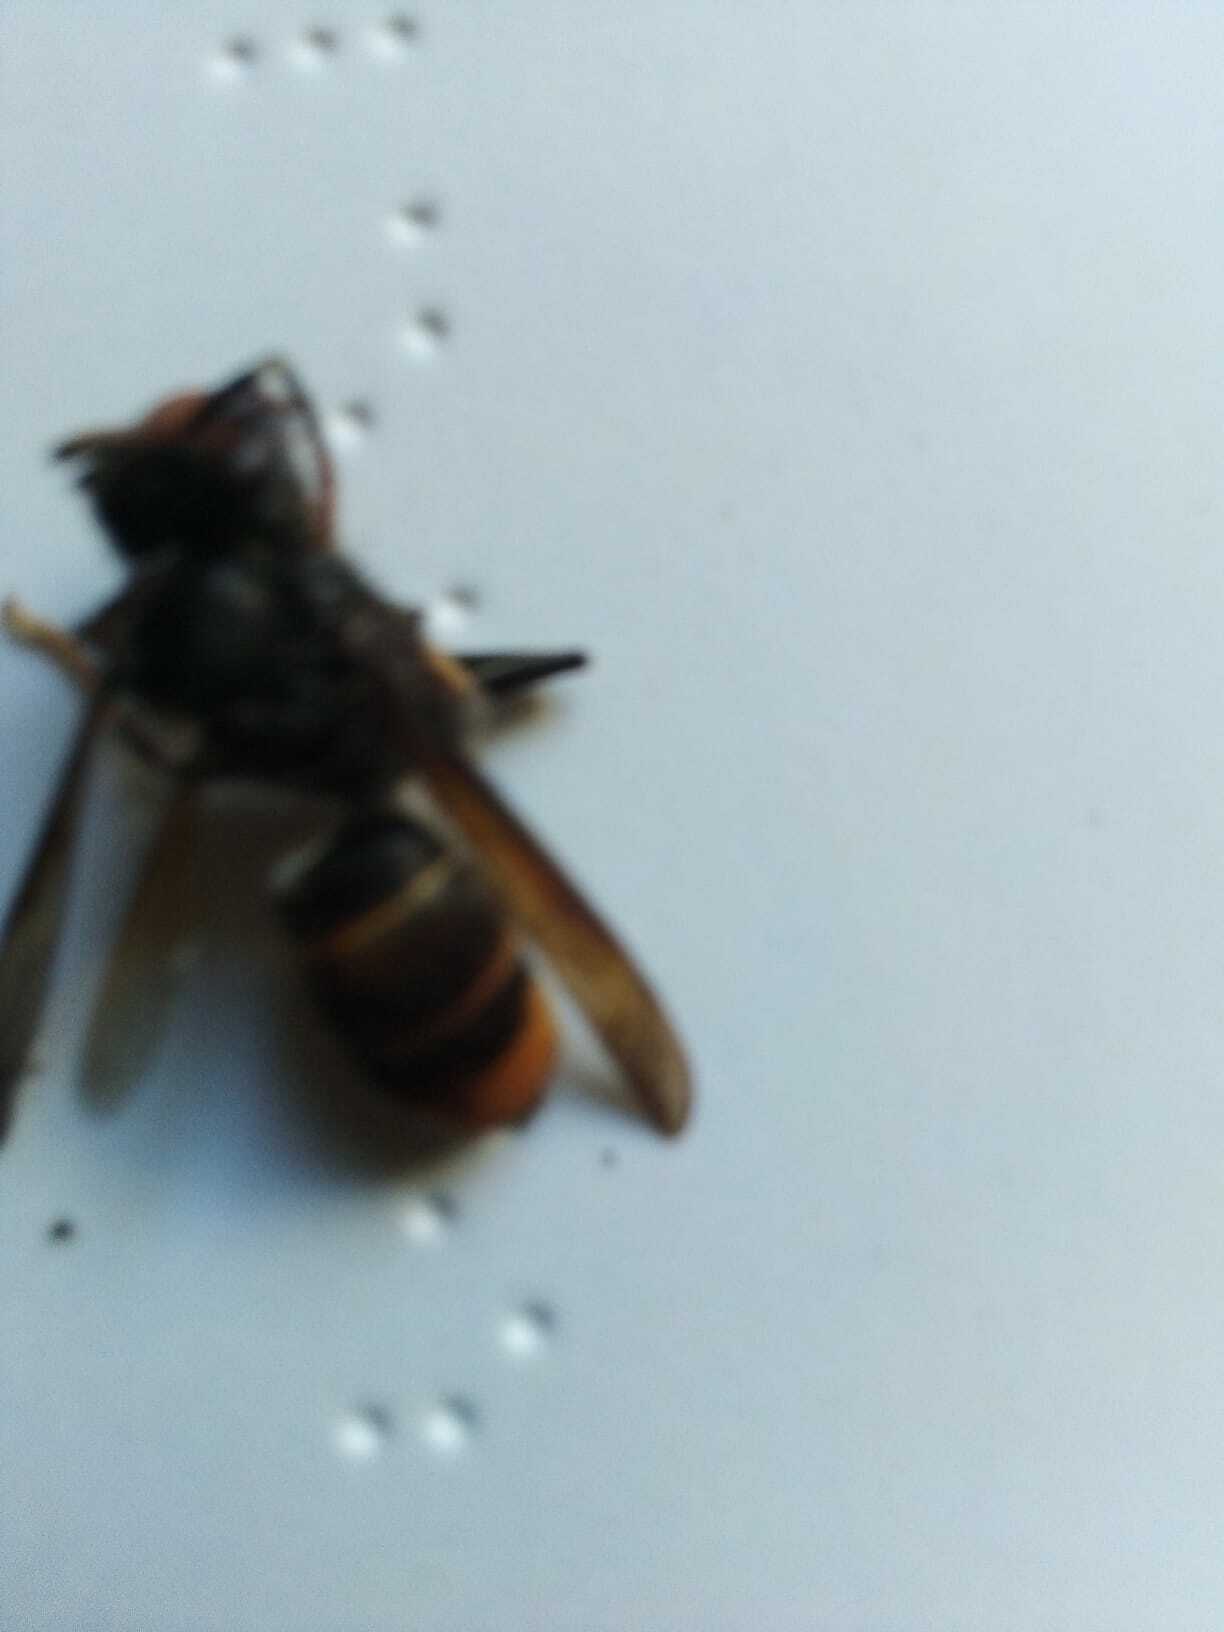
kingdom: Animalia
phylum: Arthropoda
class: Insecta
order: Hymenoptera
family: Vespidae
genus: Vespa
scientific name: Vespa velutina
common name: Asian hornet
